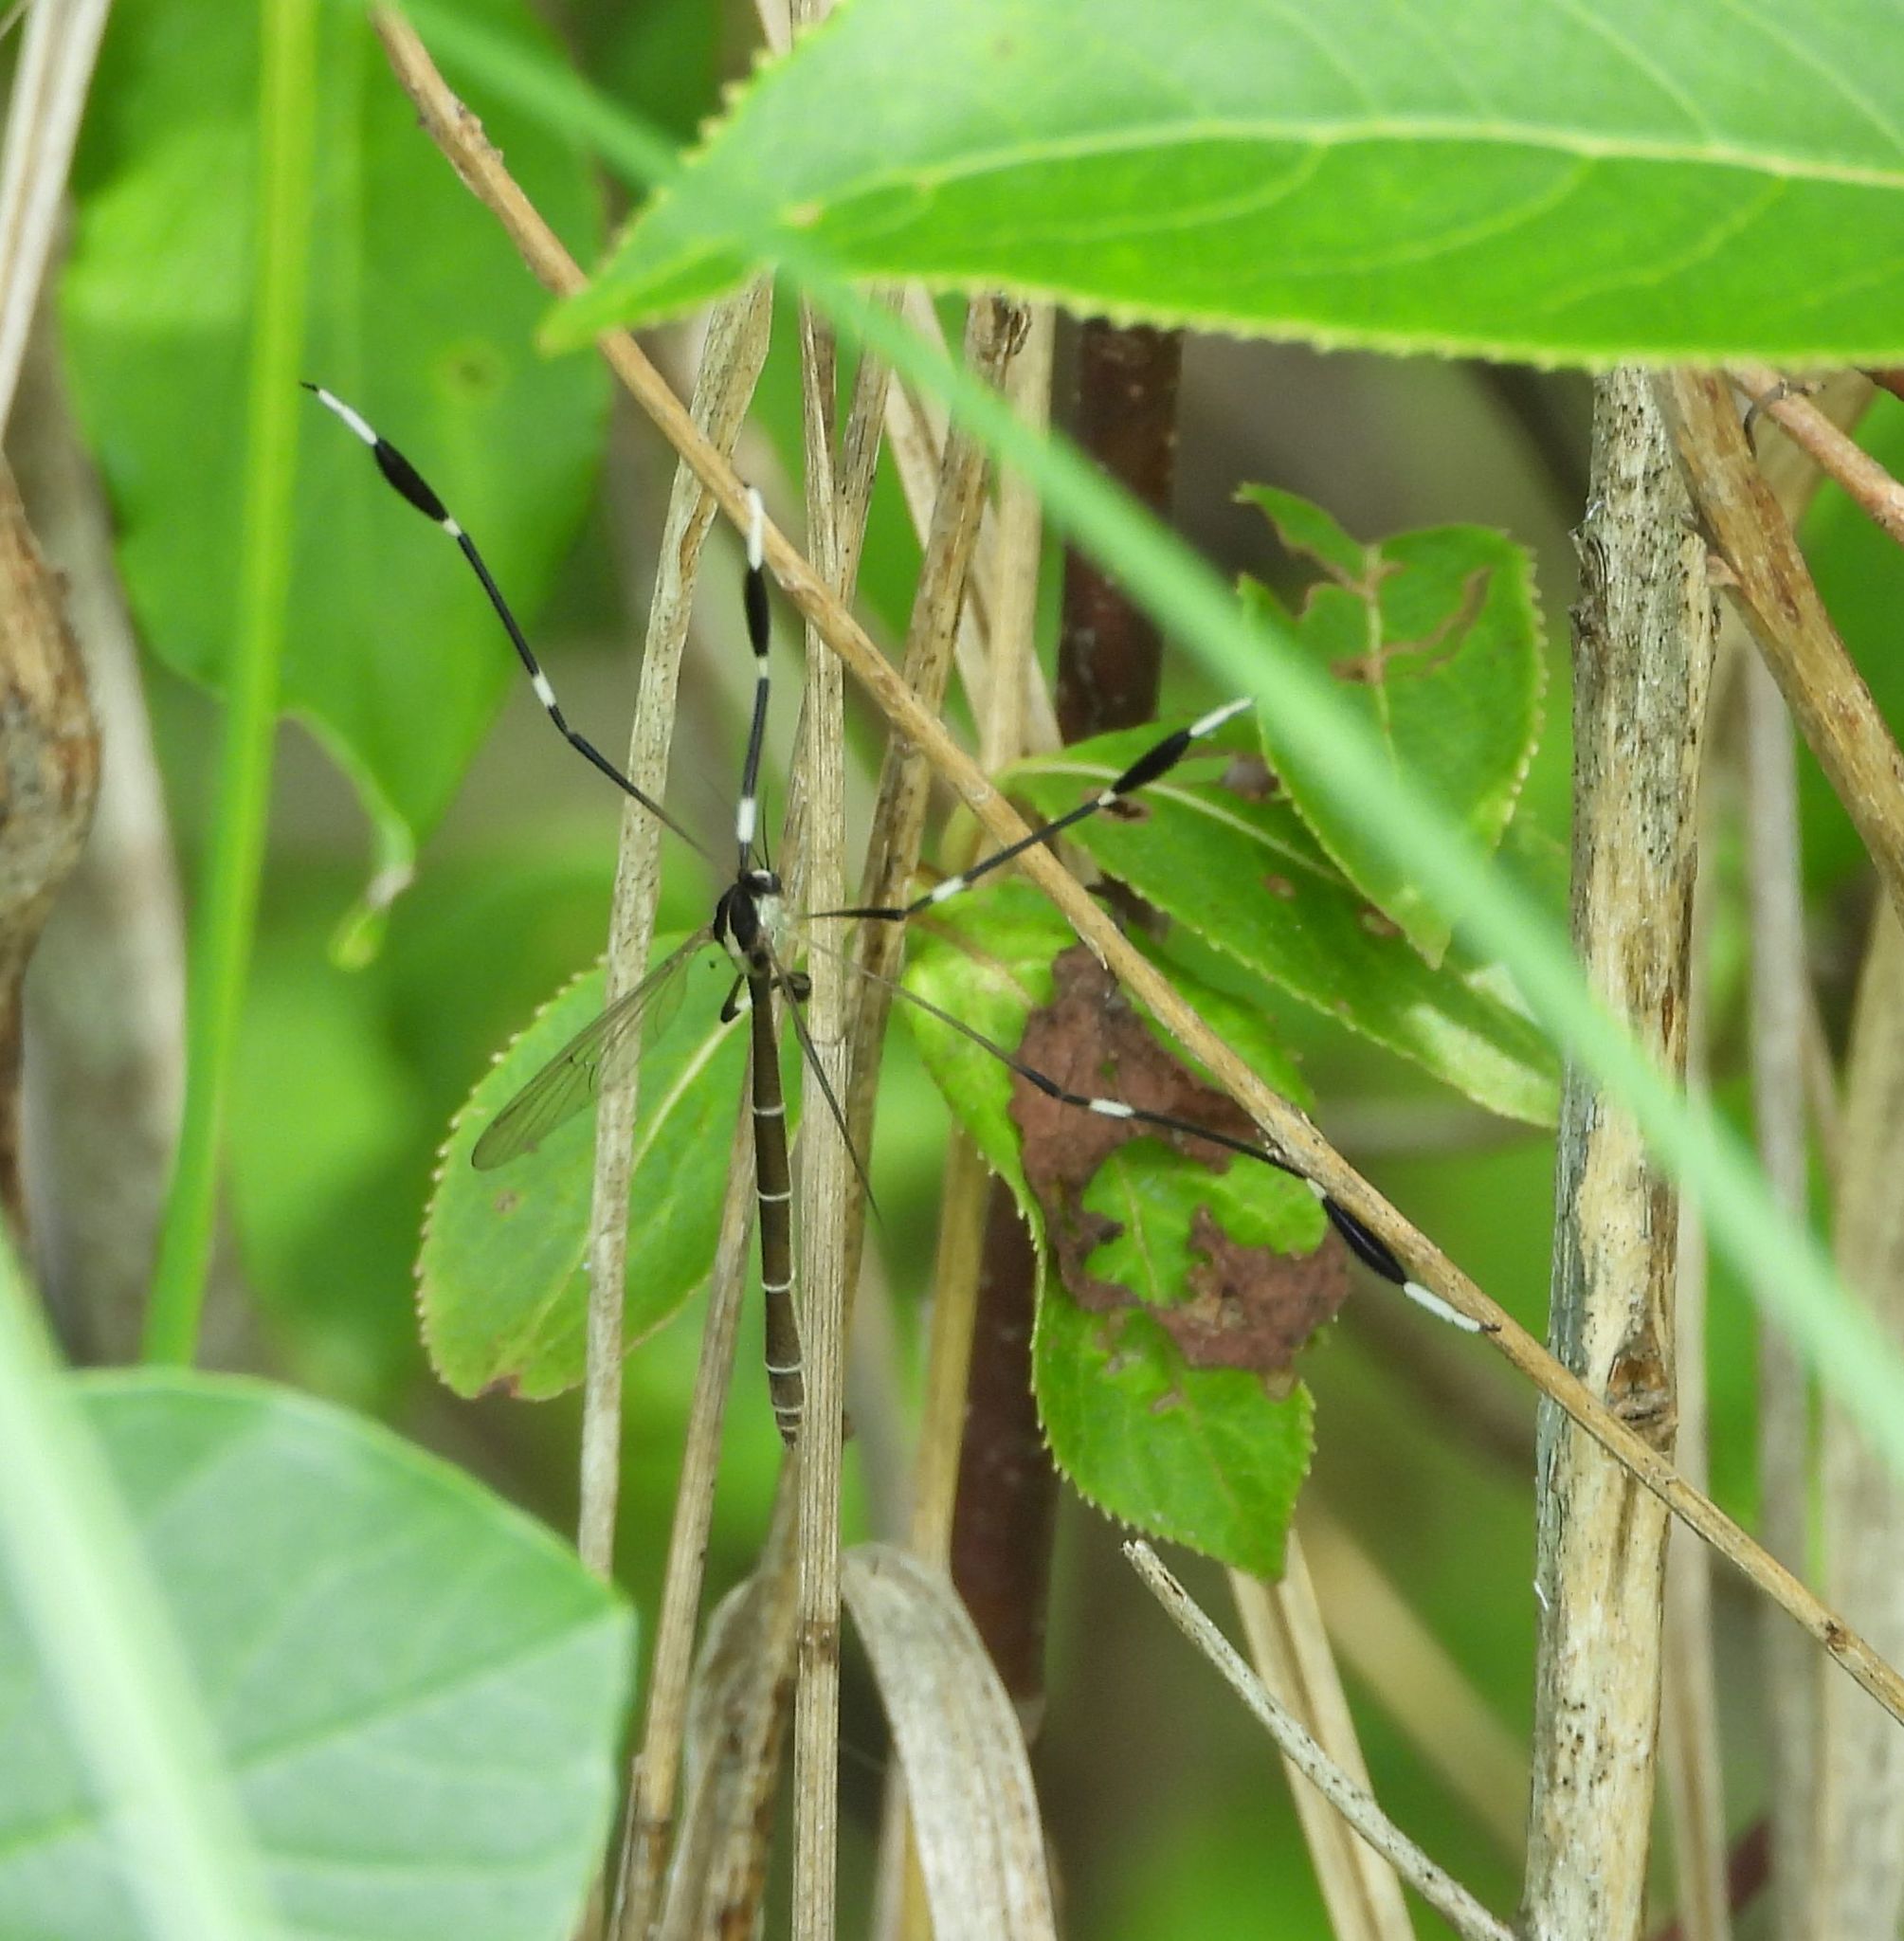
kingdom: Animalia
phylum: Arthropoda
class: Insecta
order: Diptera
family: Ptychopteridae
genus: Bittacomorpha
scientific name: Bittacomorpha clavipes
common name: Eastern phantom crane fly
